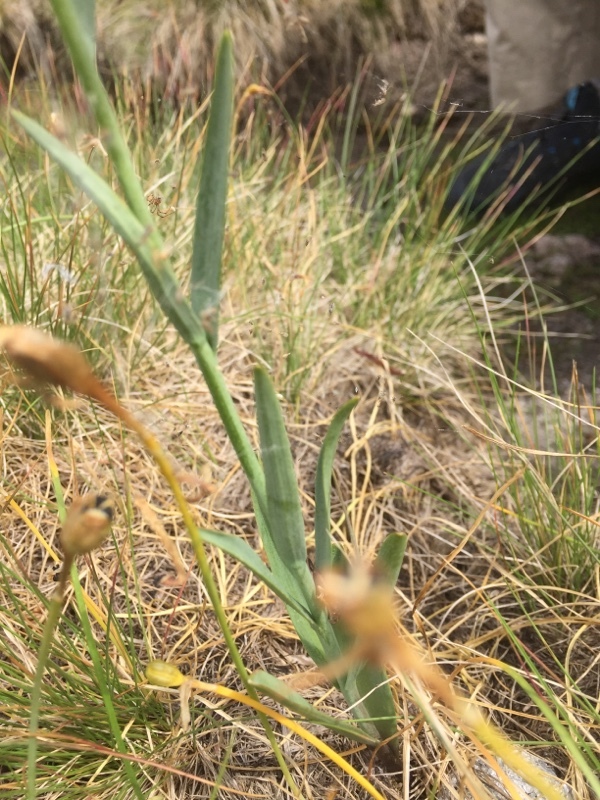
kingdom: Plantae
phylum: Tracheophyta
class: Liliopsida
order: Liliales
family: Liliaceae
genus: Fritillaria
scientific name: Fritillaria lusitanica
